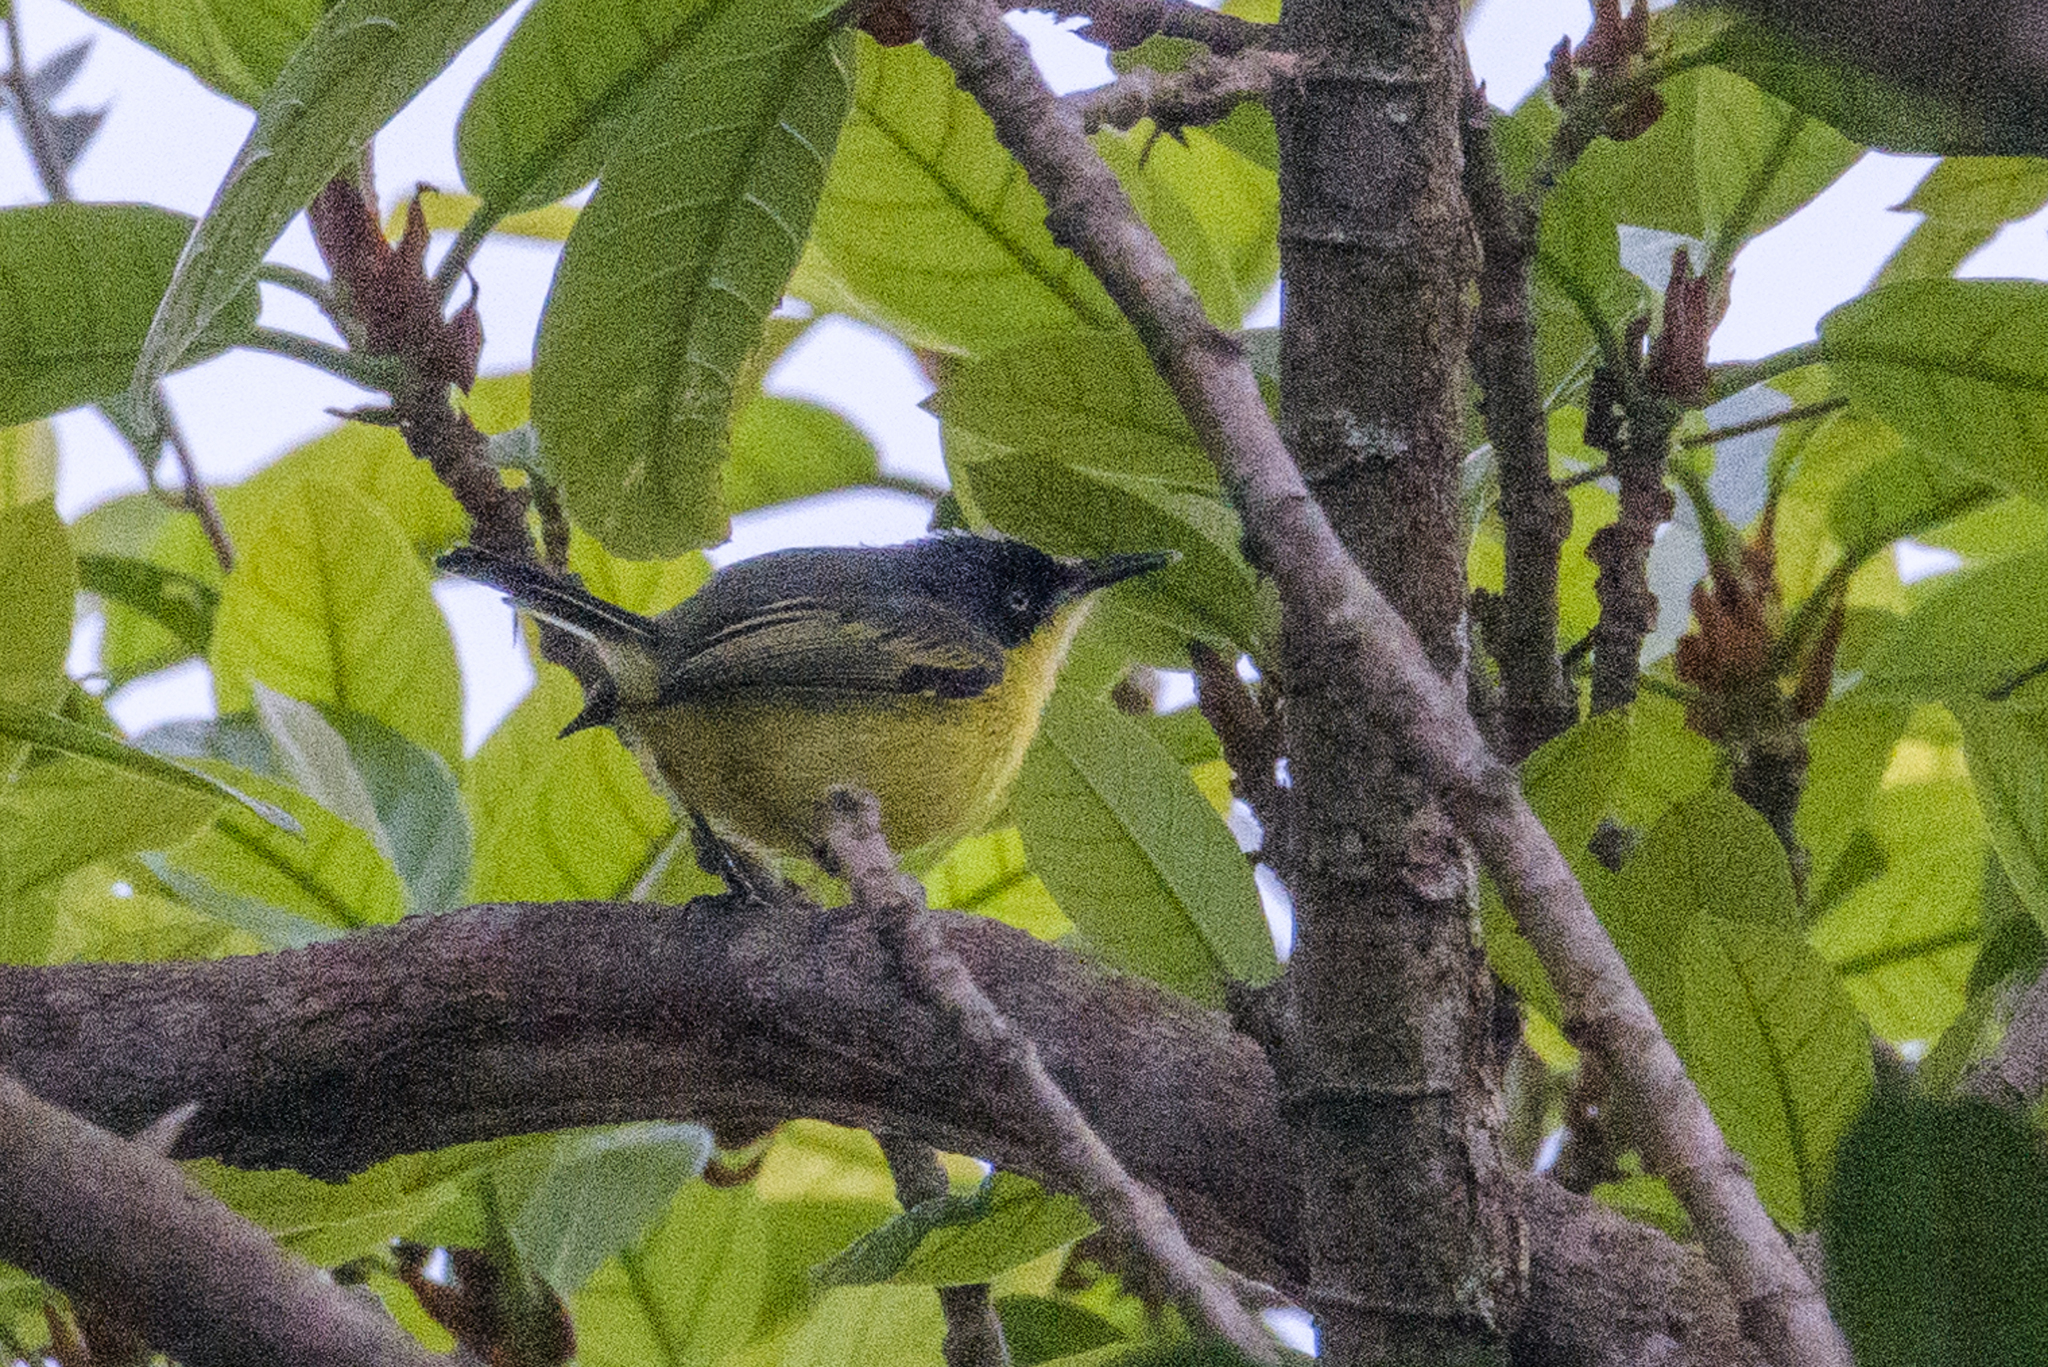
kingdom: Animalia
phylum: Chordata
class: Aves
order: Passeriformes
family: Tyrannidae
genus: Todirostrum
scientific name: Todirostrum cinereum
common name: Common tody-flycatcher
